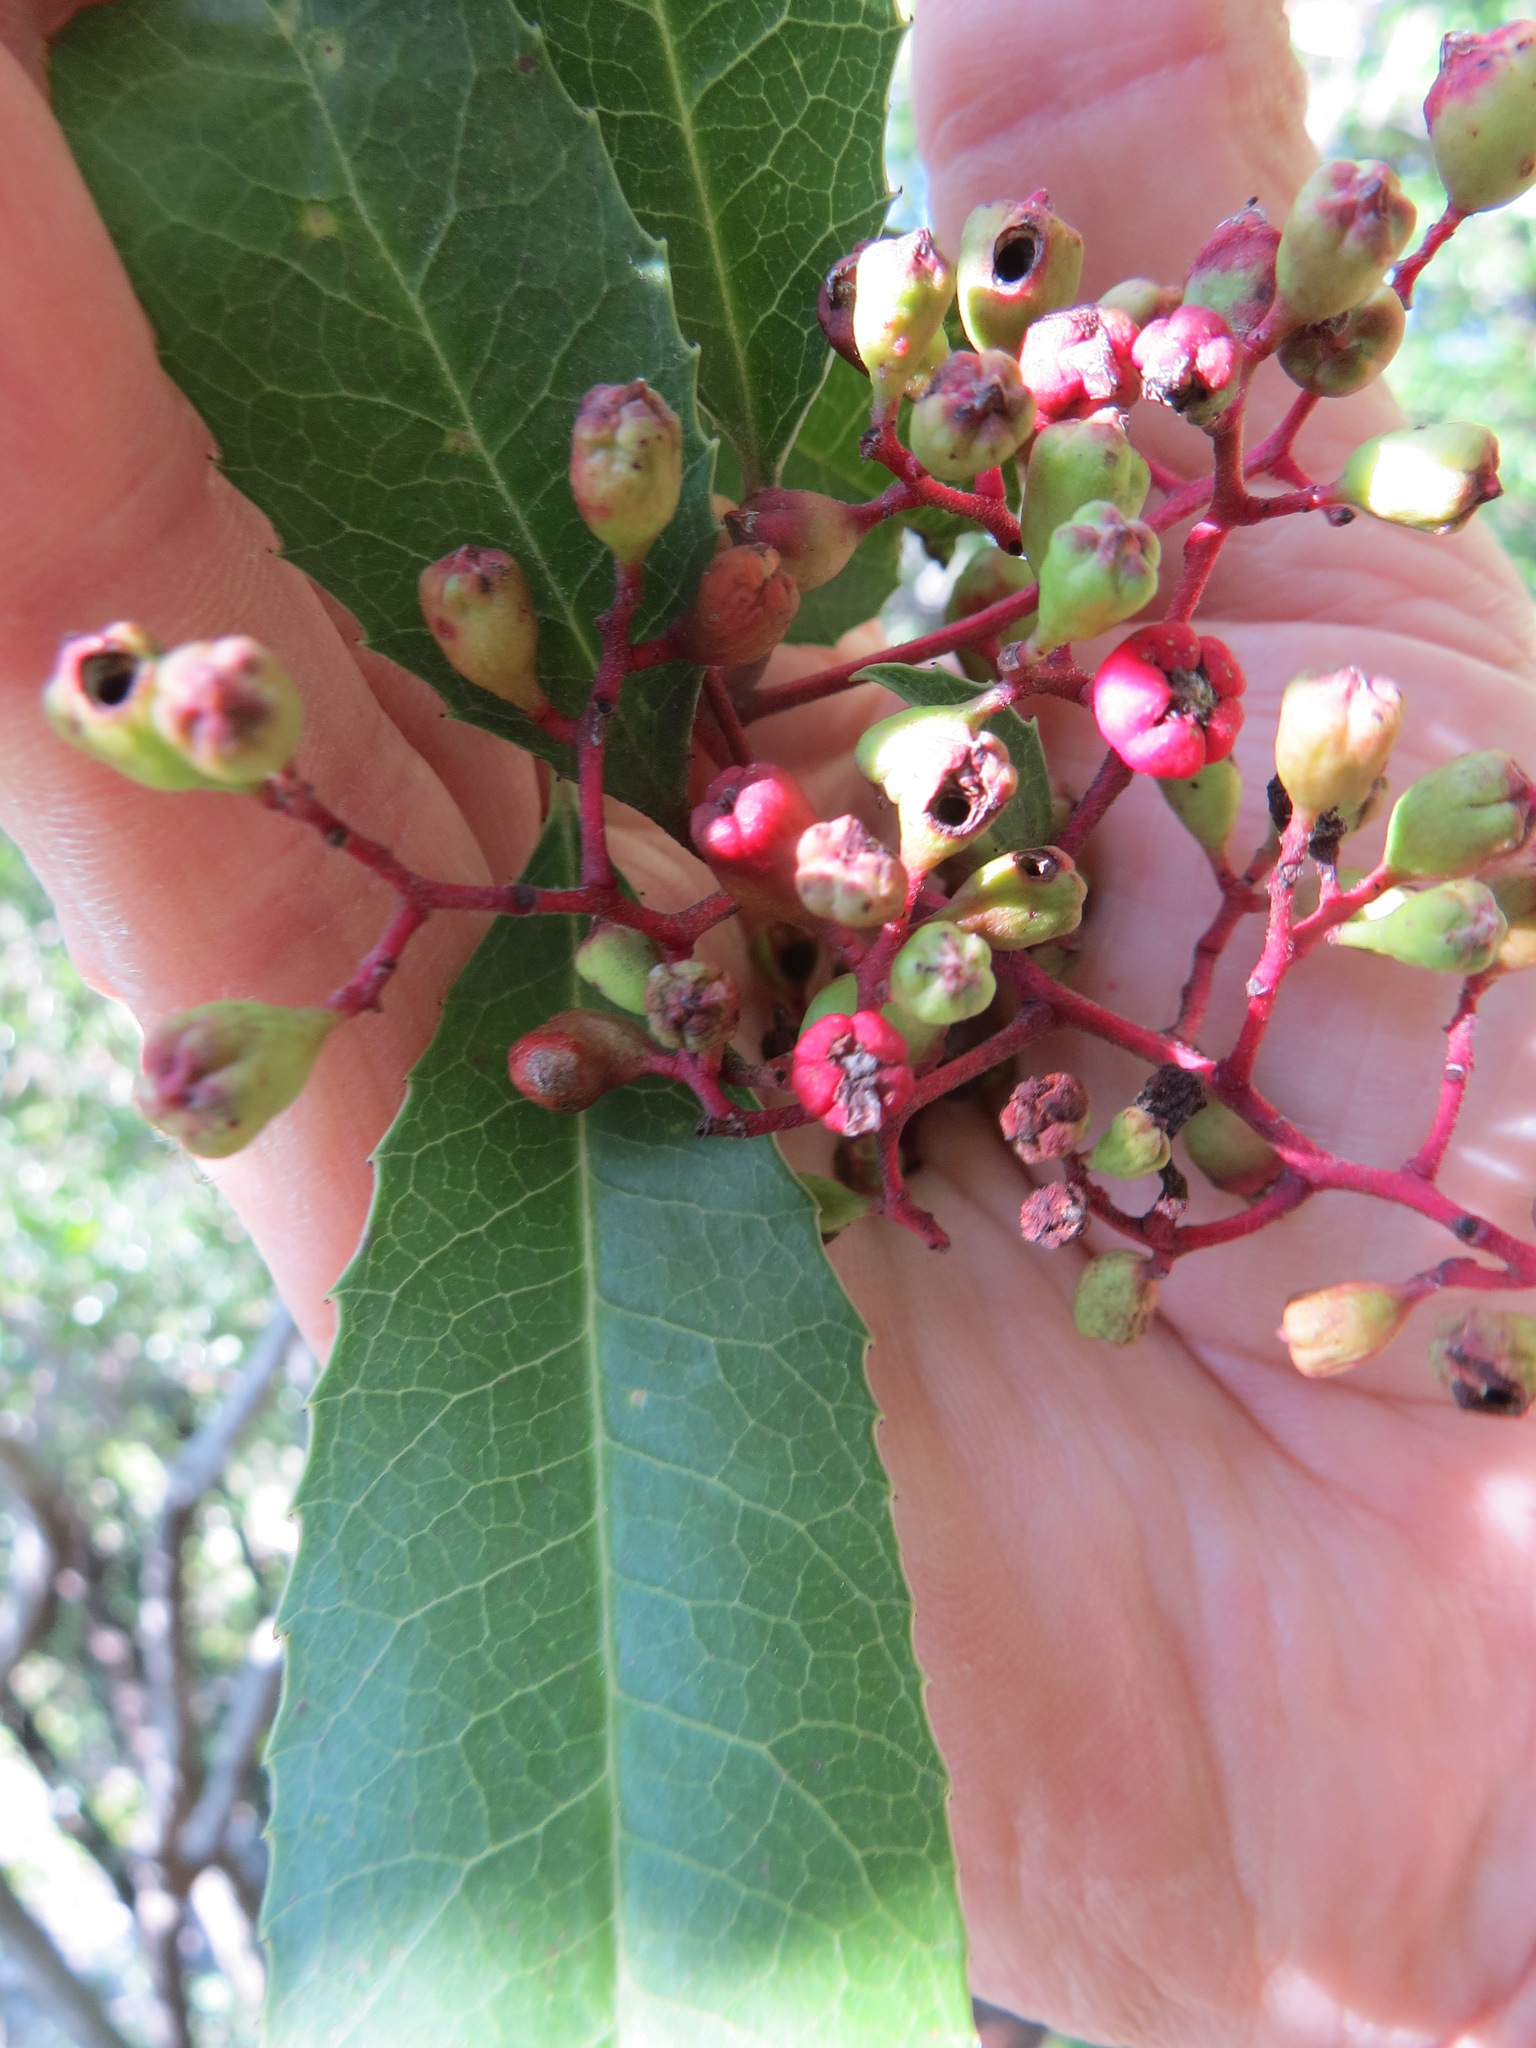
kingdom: Animalia
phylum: Arthropoda
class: Insecta
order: Diptera
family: Cecidomyiidae
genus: Asphondylia
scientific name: Asphondylia photiniae
